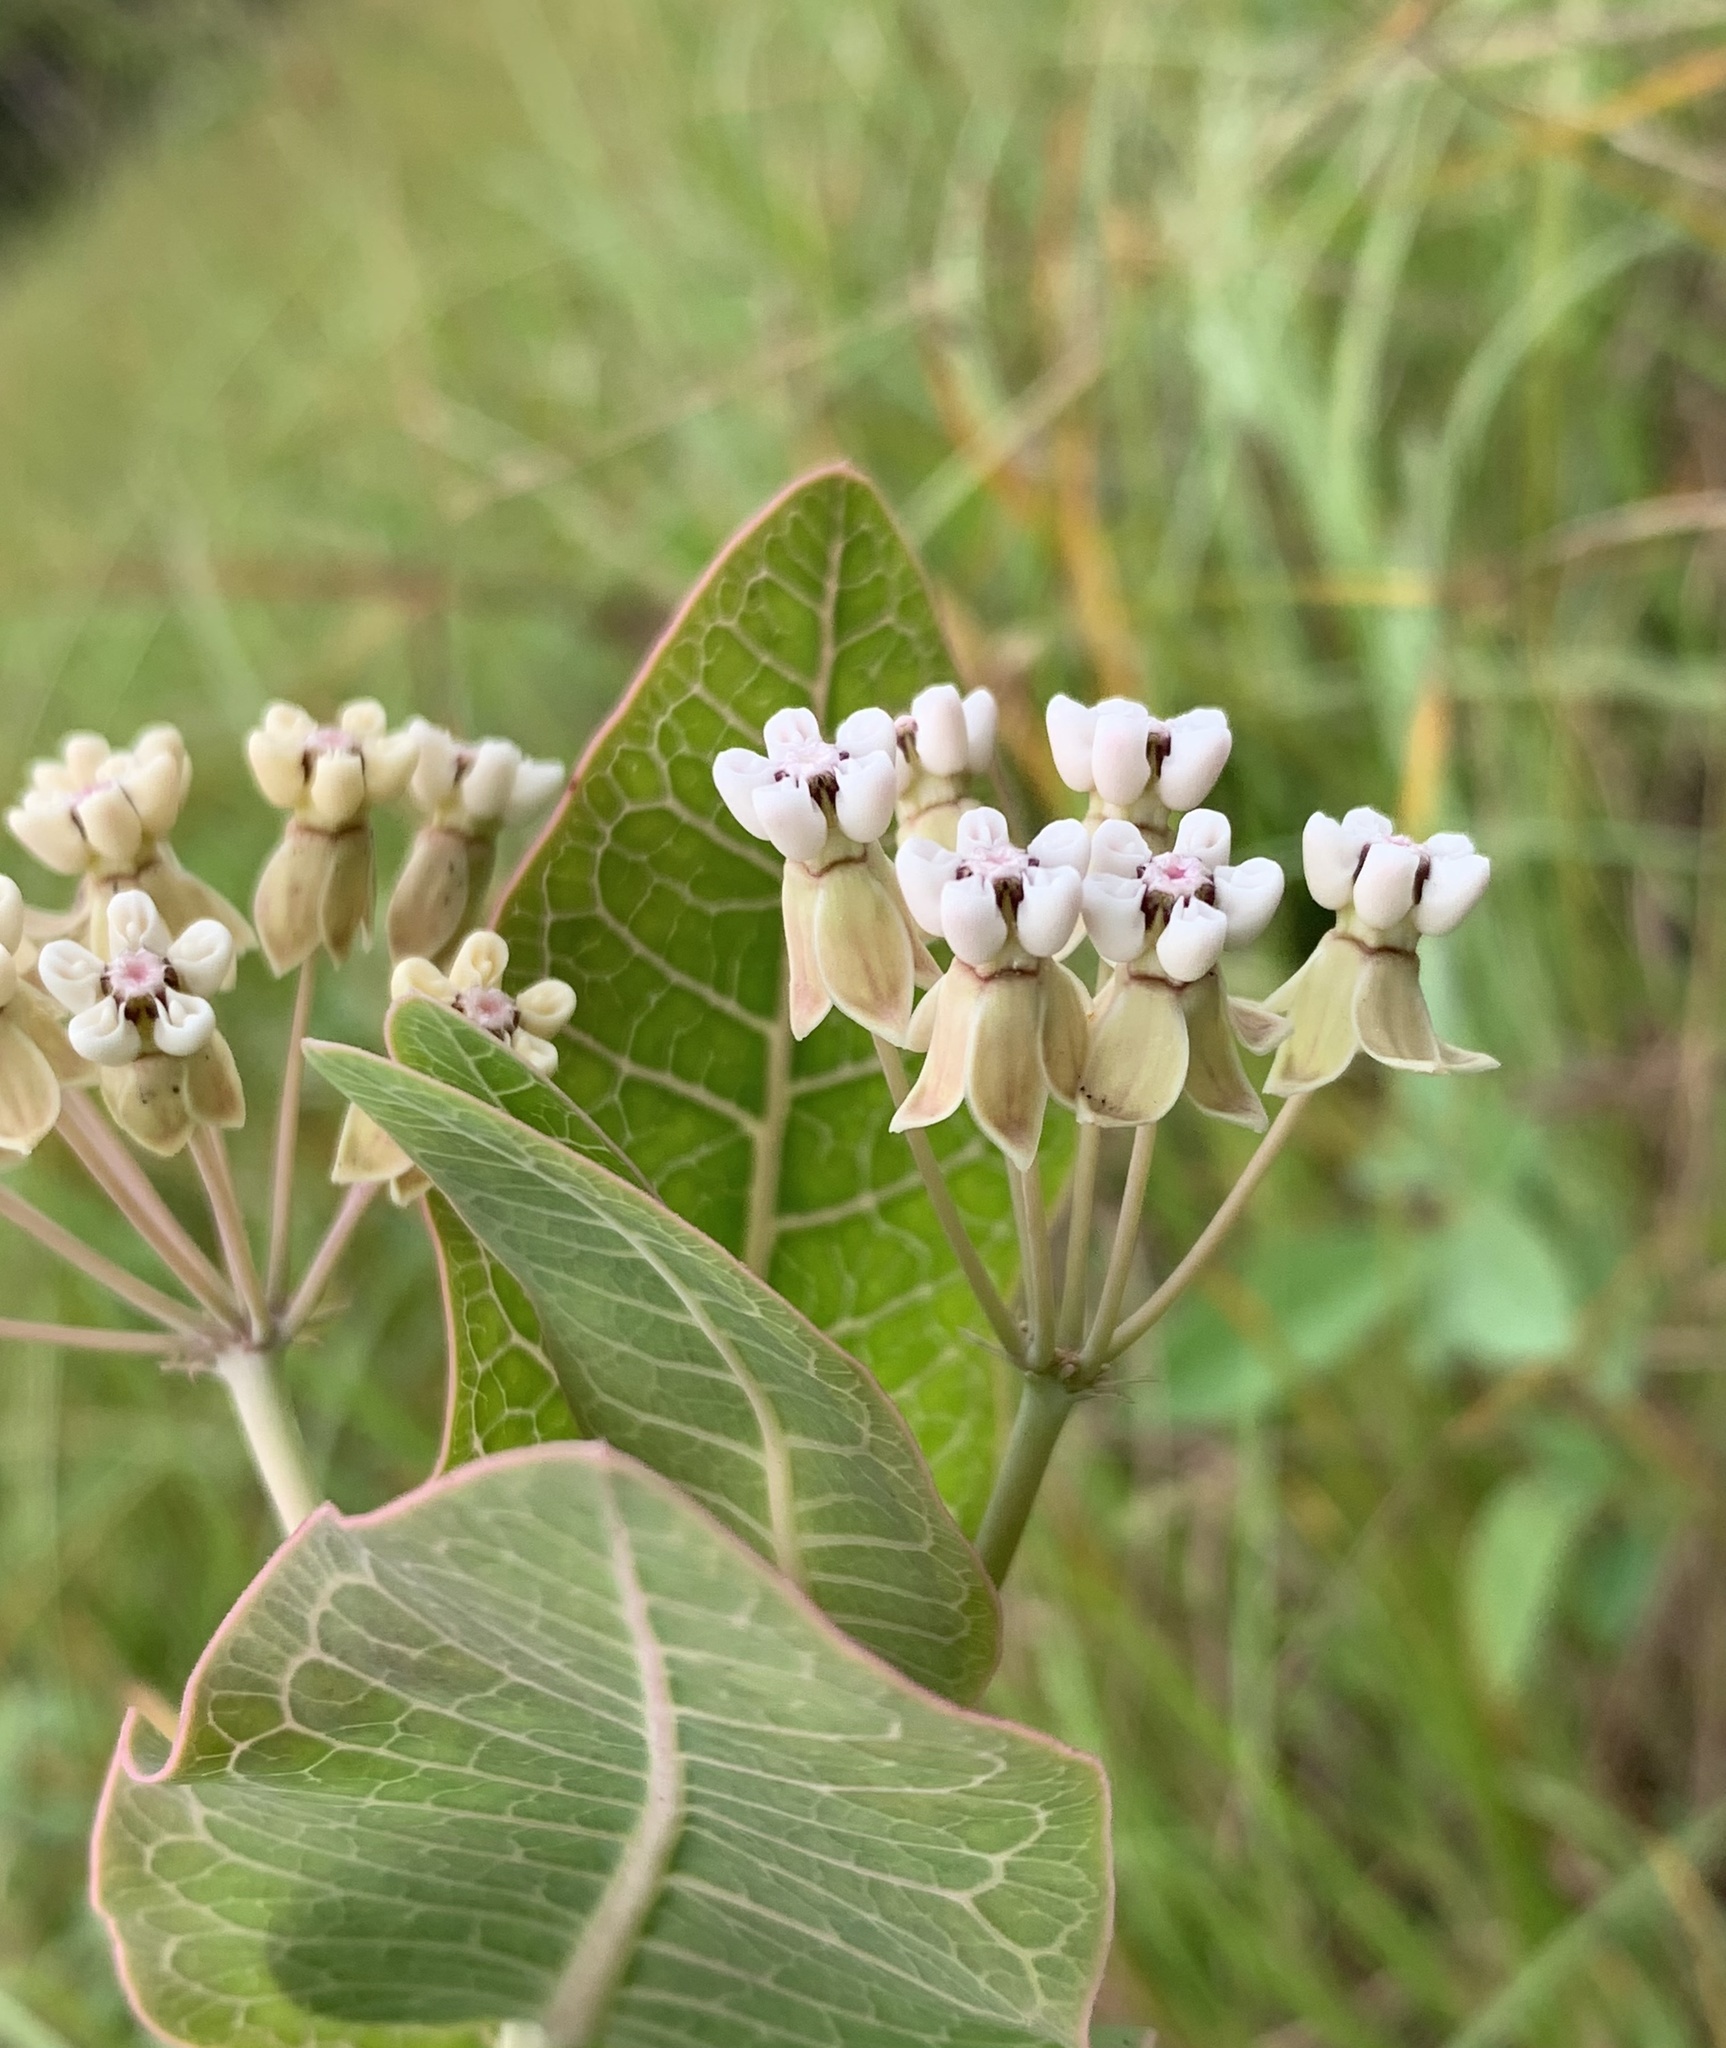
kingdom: Plantae
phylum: Tracheophyta
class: Magnoliopsida
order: Gentianales
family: Apocynaceae
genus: Asclepias
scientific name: Asclepias humistrata
